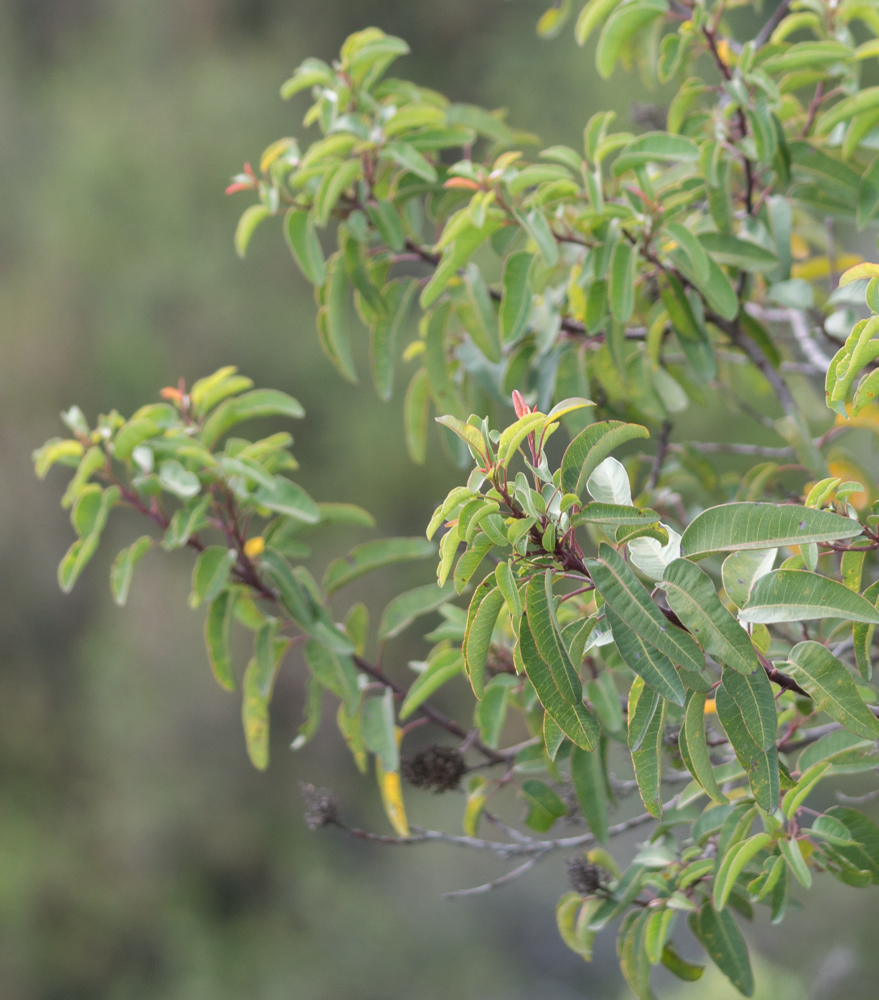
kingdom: Plantae
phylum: Tracheophyta
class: Magnoliopsida
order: Sapindales
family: Anacardiaceae
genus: Malosma
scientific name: Malosma laurina
